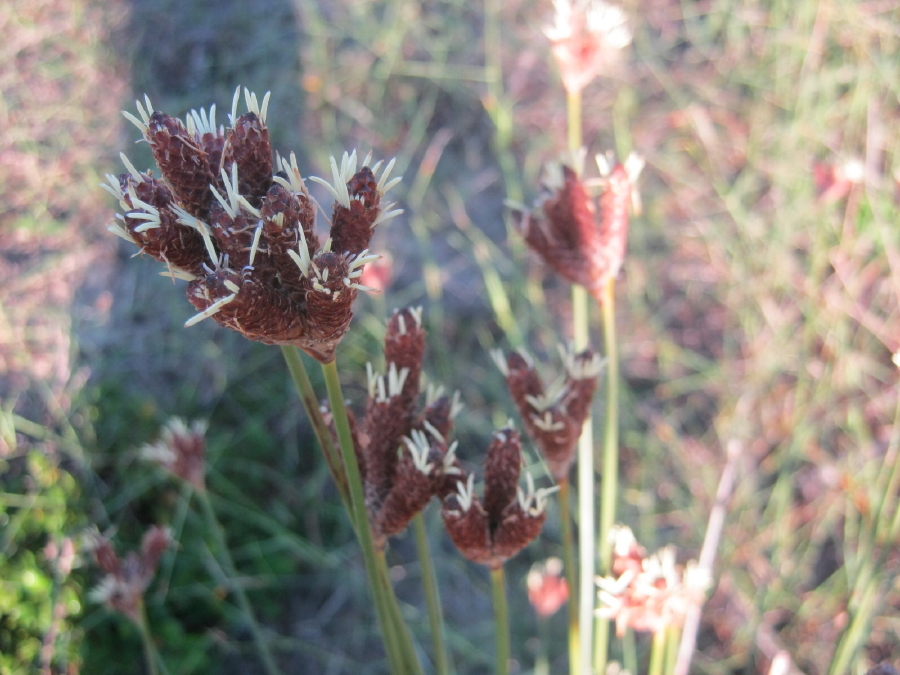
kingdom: Plantae
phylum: Tracheophyta
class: Liliopsida
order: Poales
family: Cyperaceae
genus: Hellmuthia
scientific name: Hellmuthia membranacea
